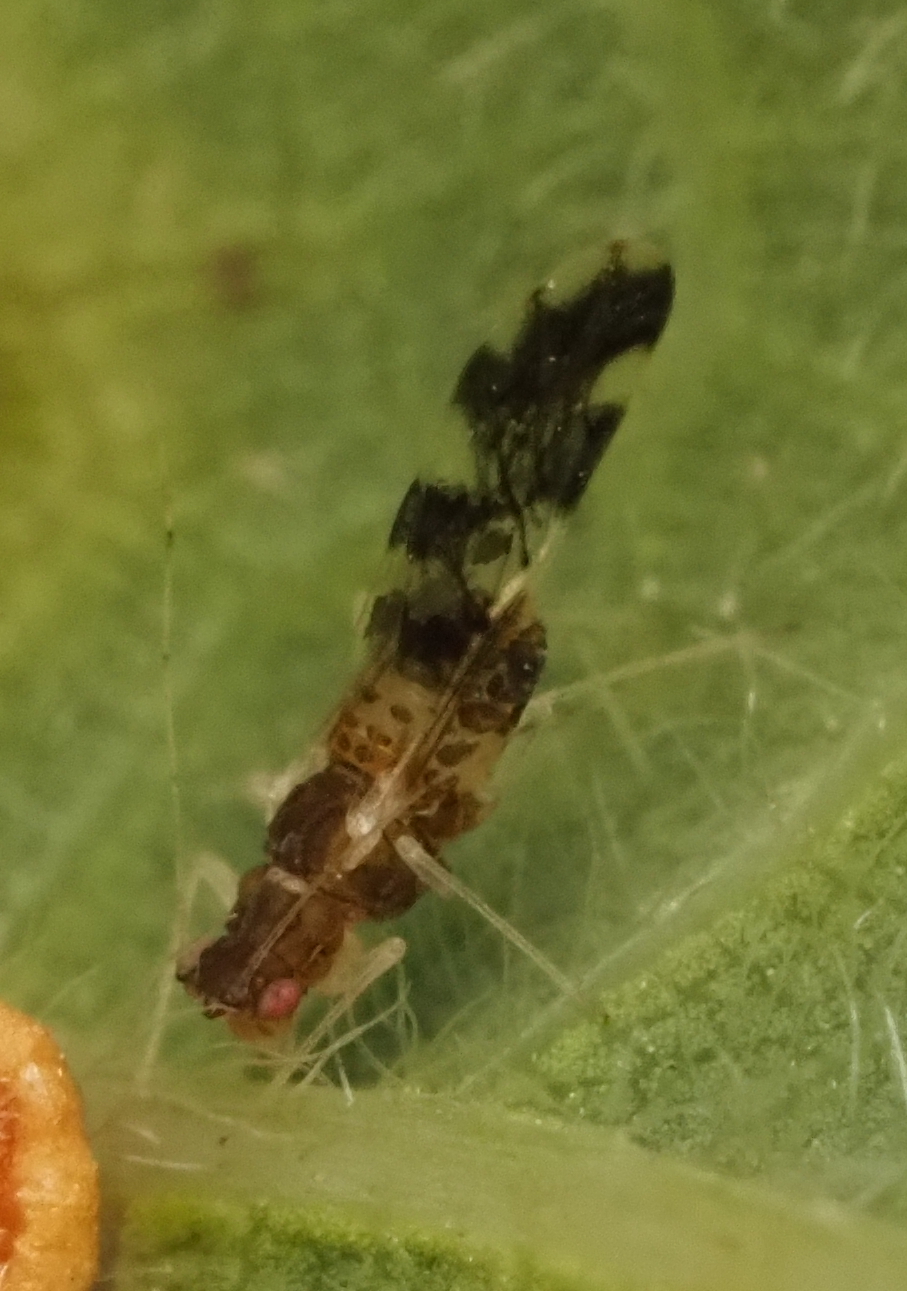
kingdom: Animalia
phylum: Arthropoda
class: Insecta
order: Hemiptera
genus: Neomyzocallis
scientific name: Neomyzocallis
